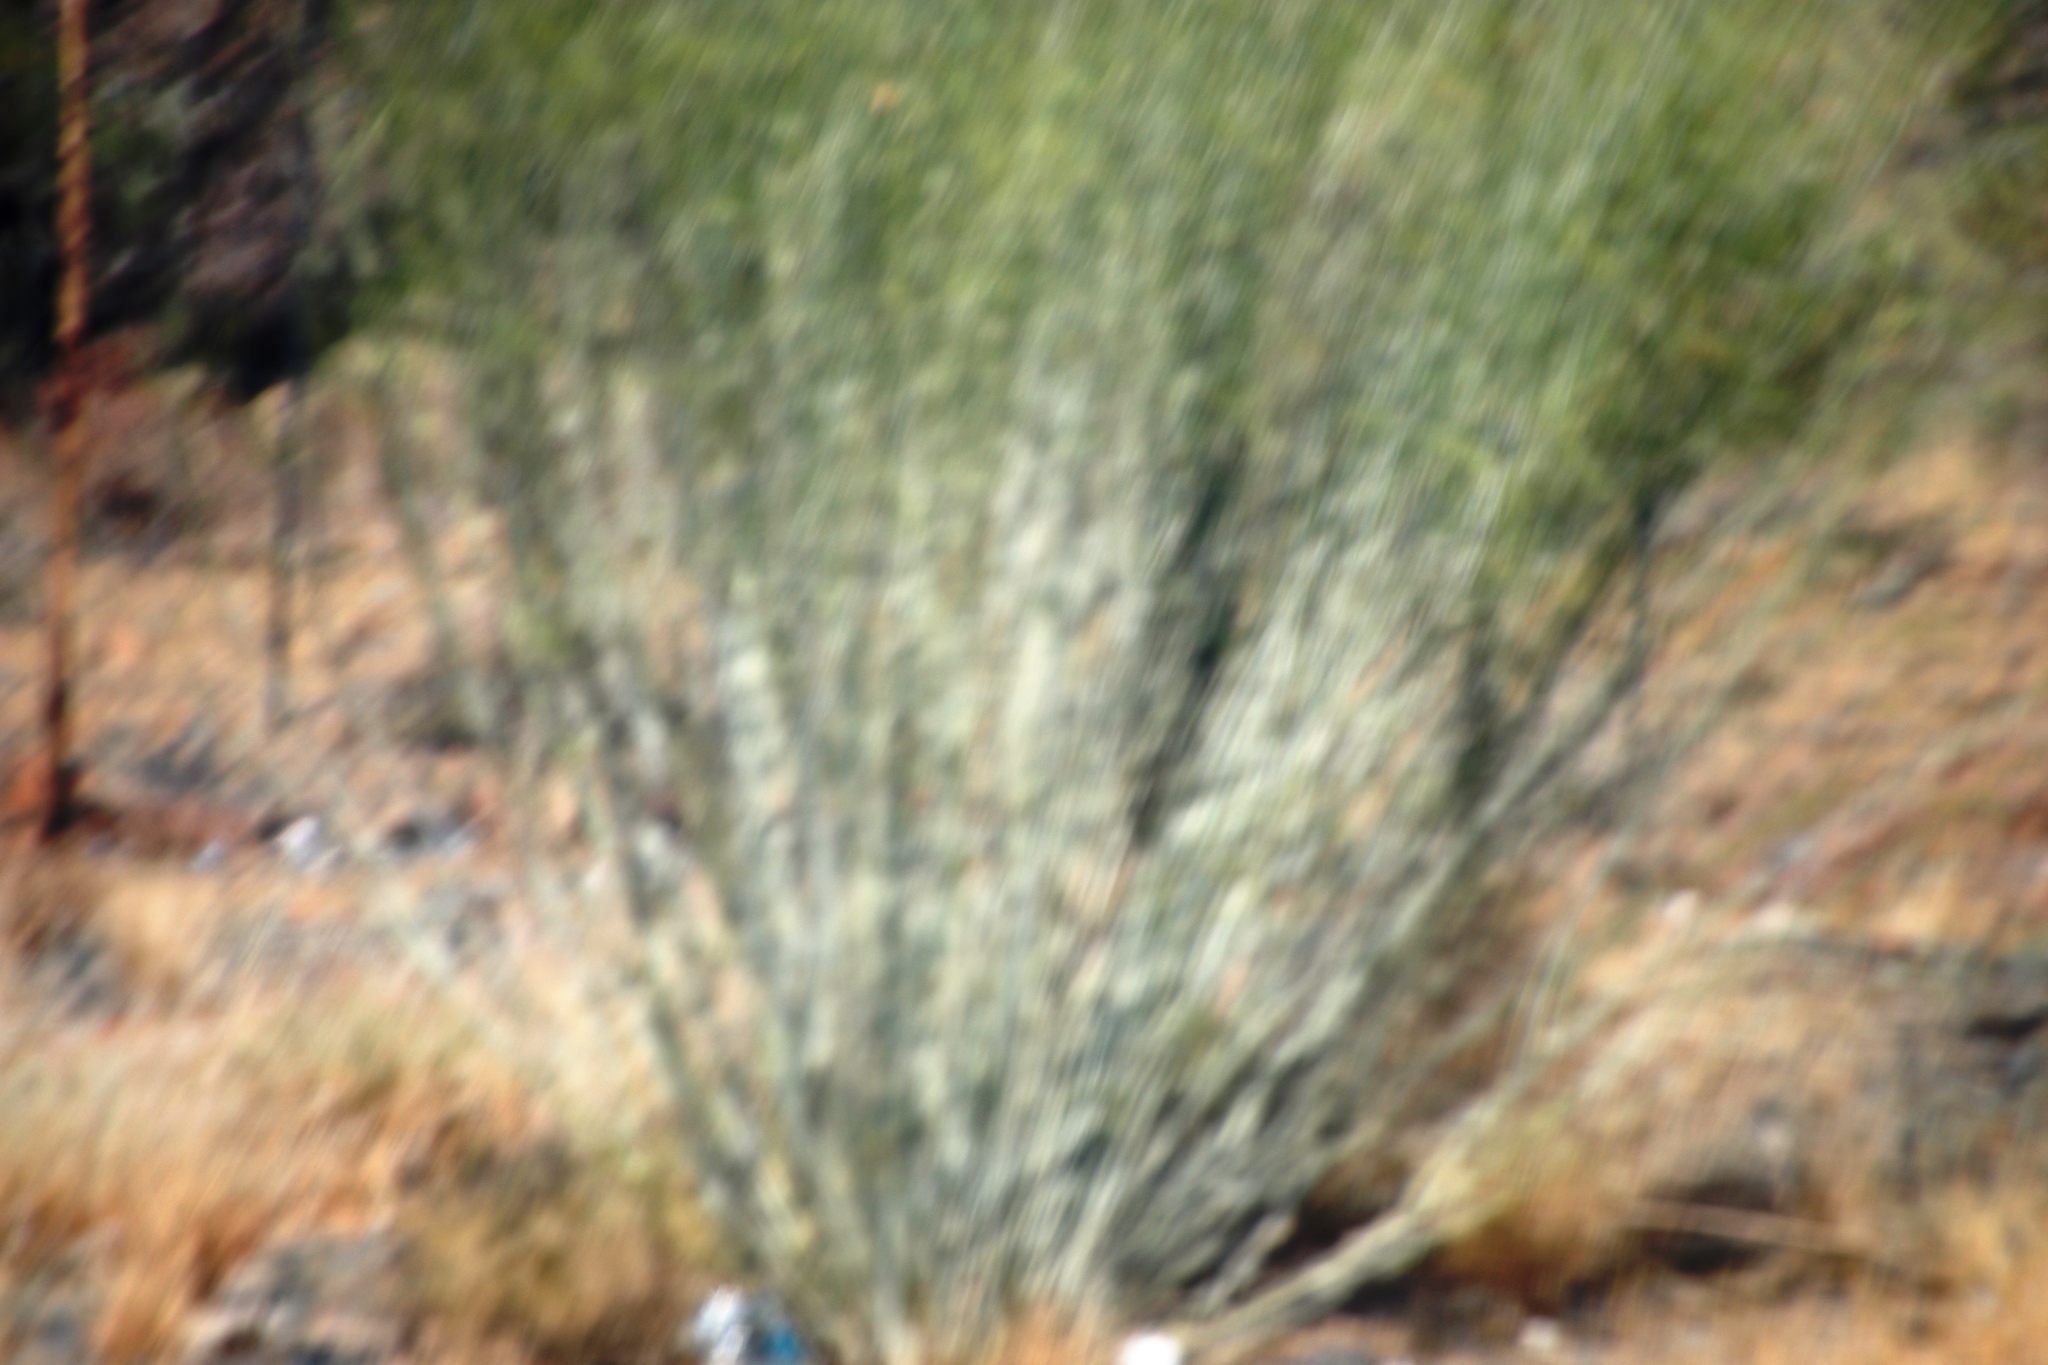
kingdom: Plantae
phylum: Tracheophyta
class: Magnoliopsida
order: Gentianales
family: Apocynaceae
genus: Gomphocarpus
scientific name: Gomphocarpus filiformis
